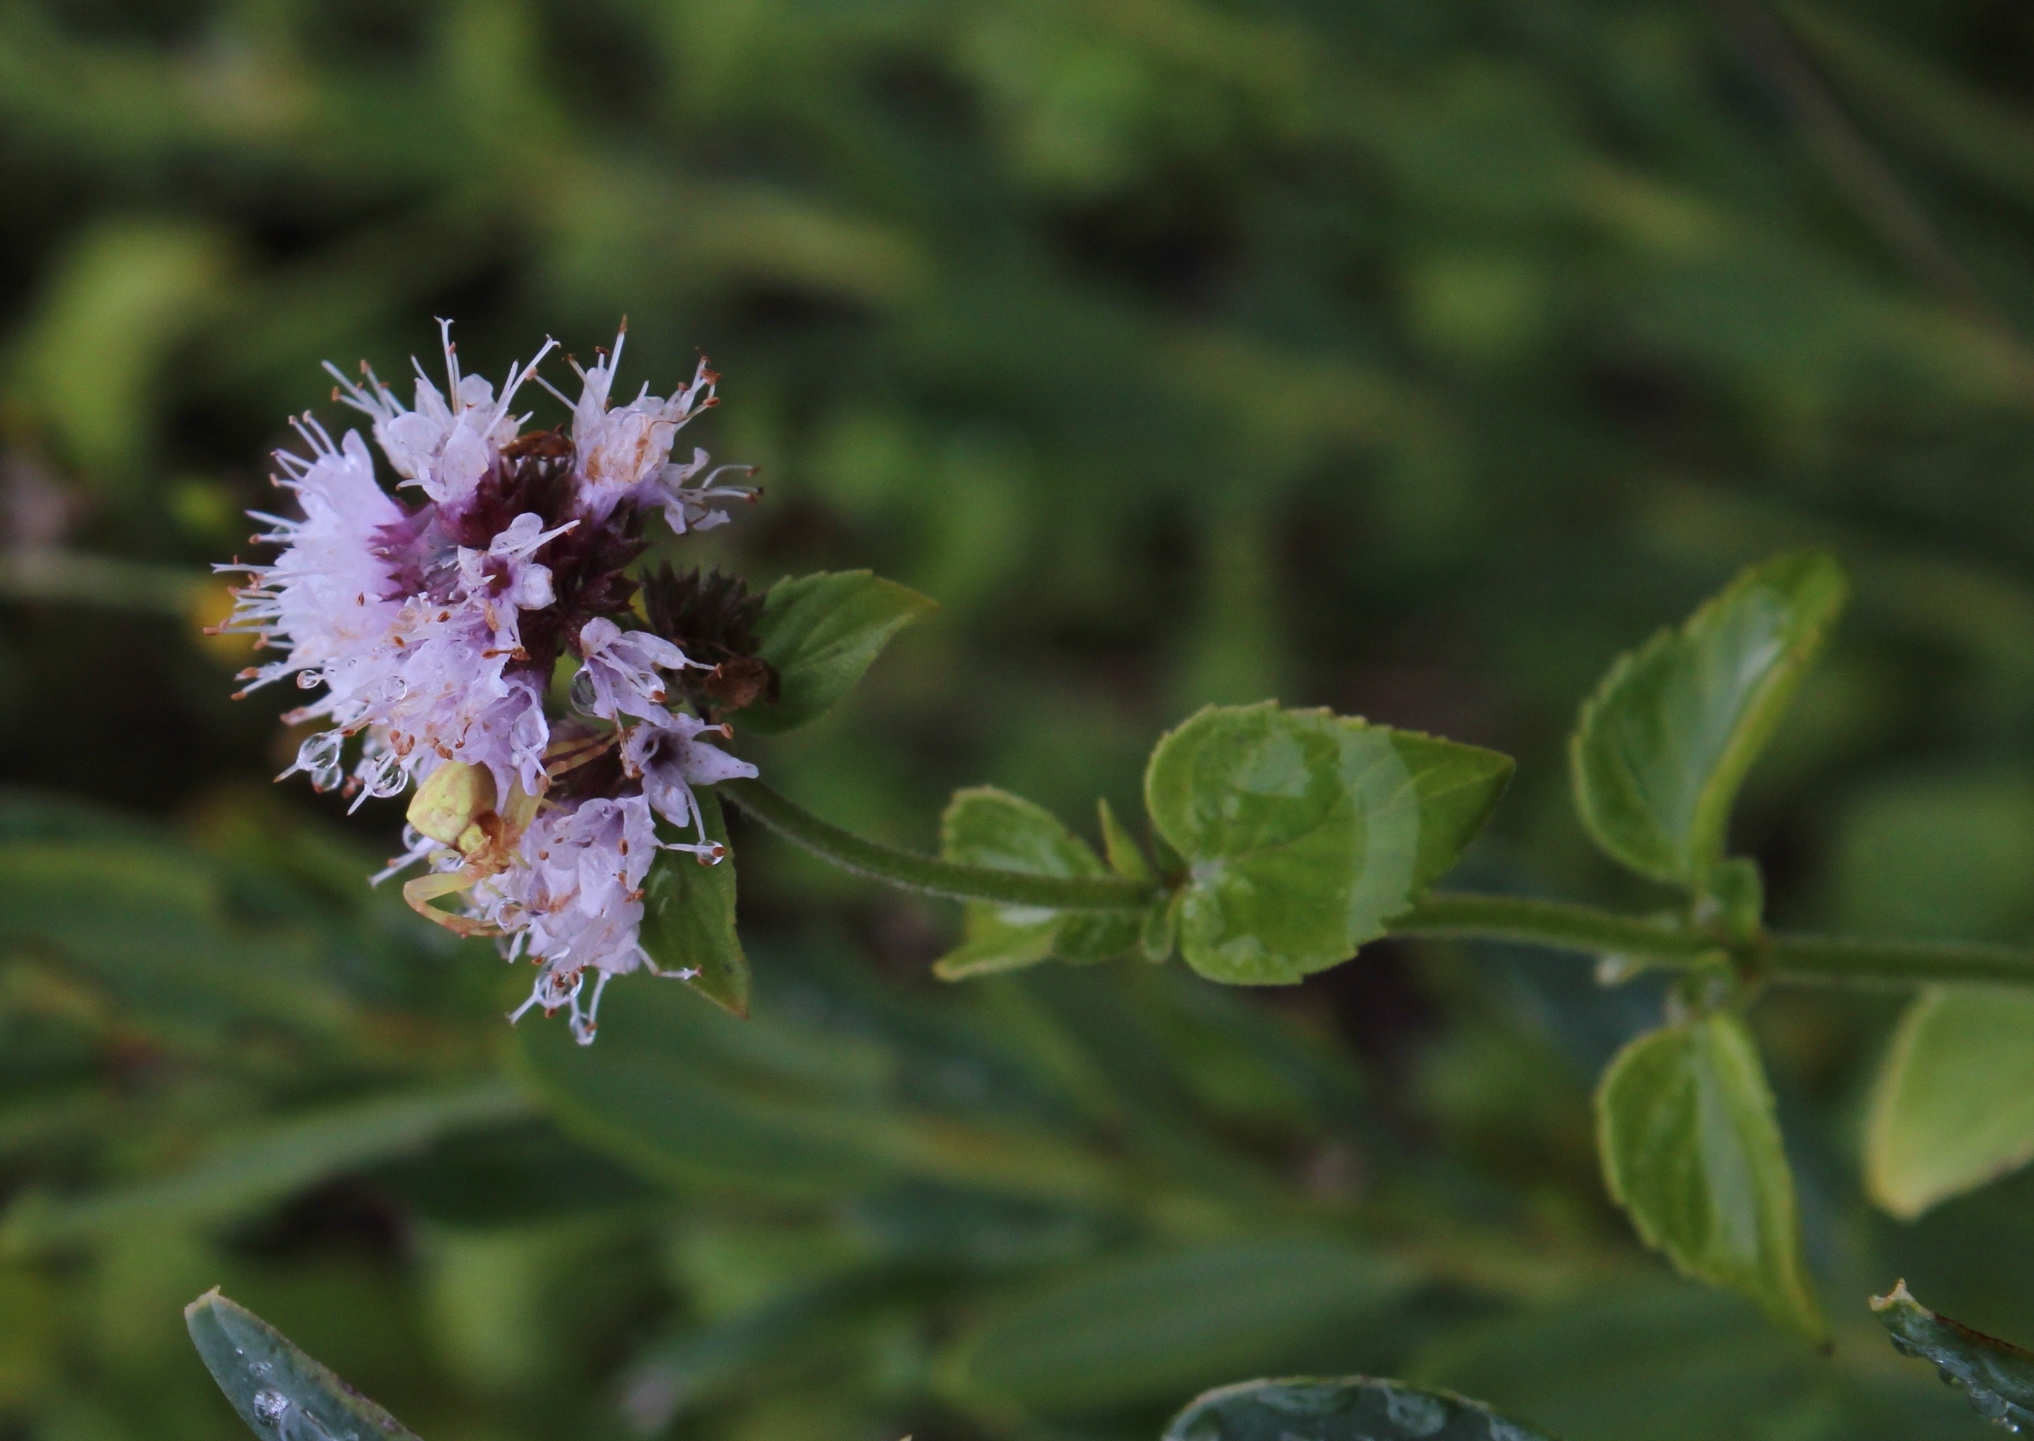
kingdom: Plantae
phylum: Tracheophyta
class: Magnoliopsida
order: Lamiales
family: Lamiaceae
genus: Mentha
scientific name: Mentha aquatica
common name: Water mint
